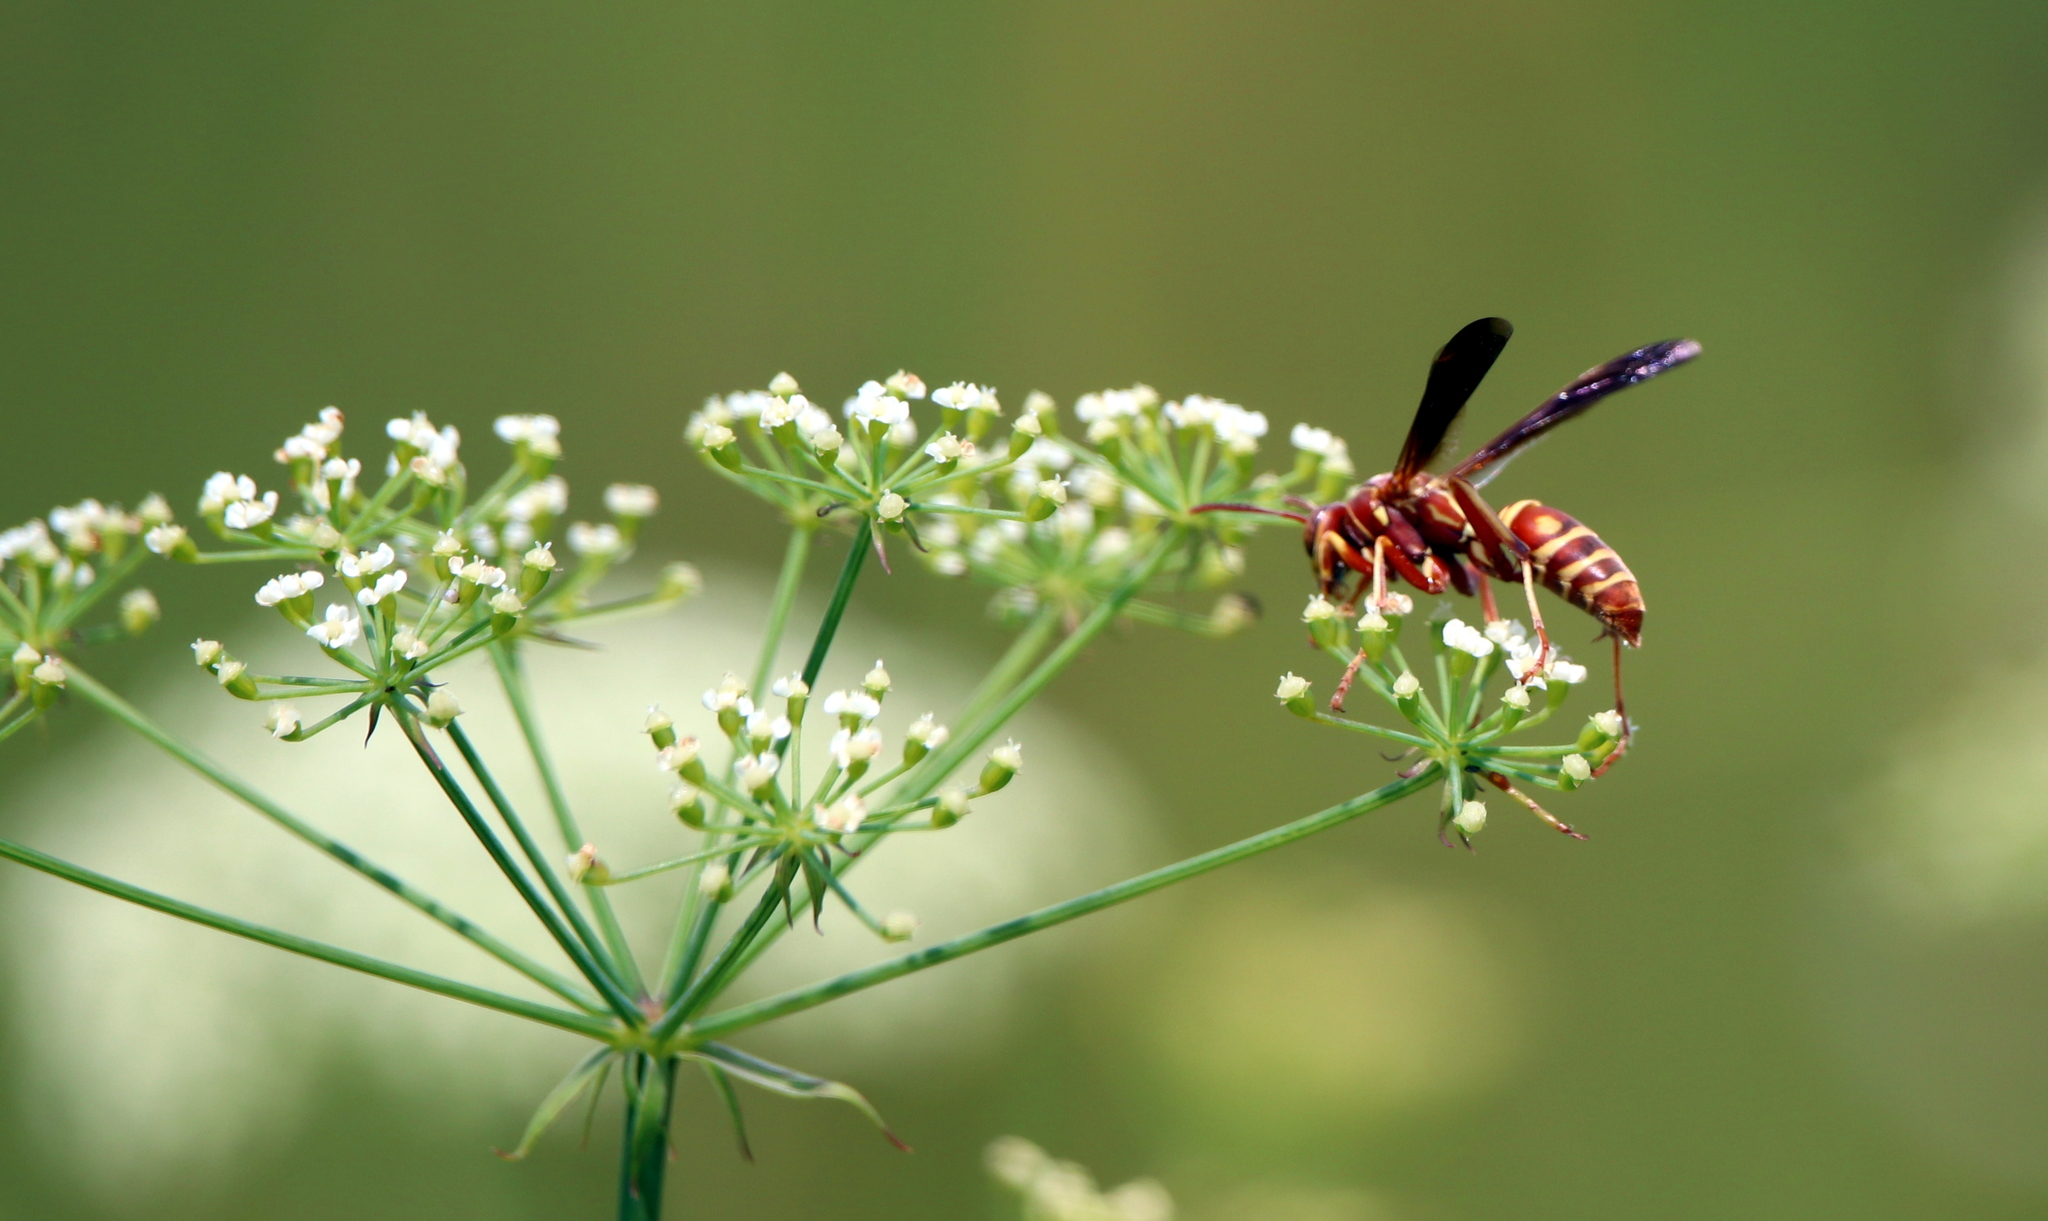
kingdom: Animalia
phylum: Arthropoda
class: Insecta
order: Hymenoptera
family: Eumenidae
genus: Polistes
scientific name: Polistes bellicosus
